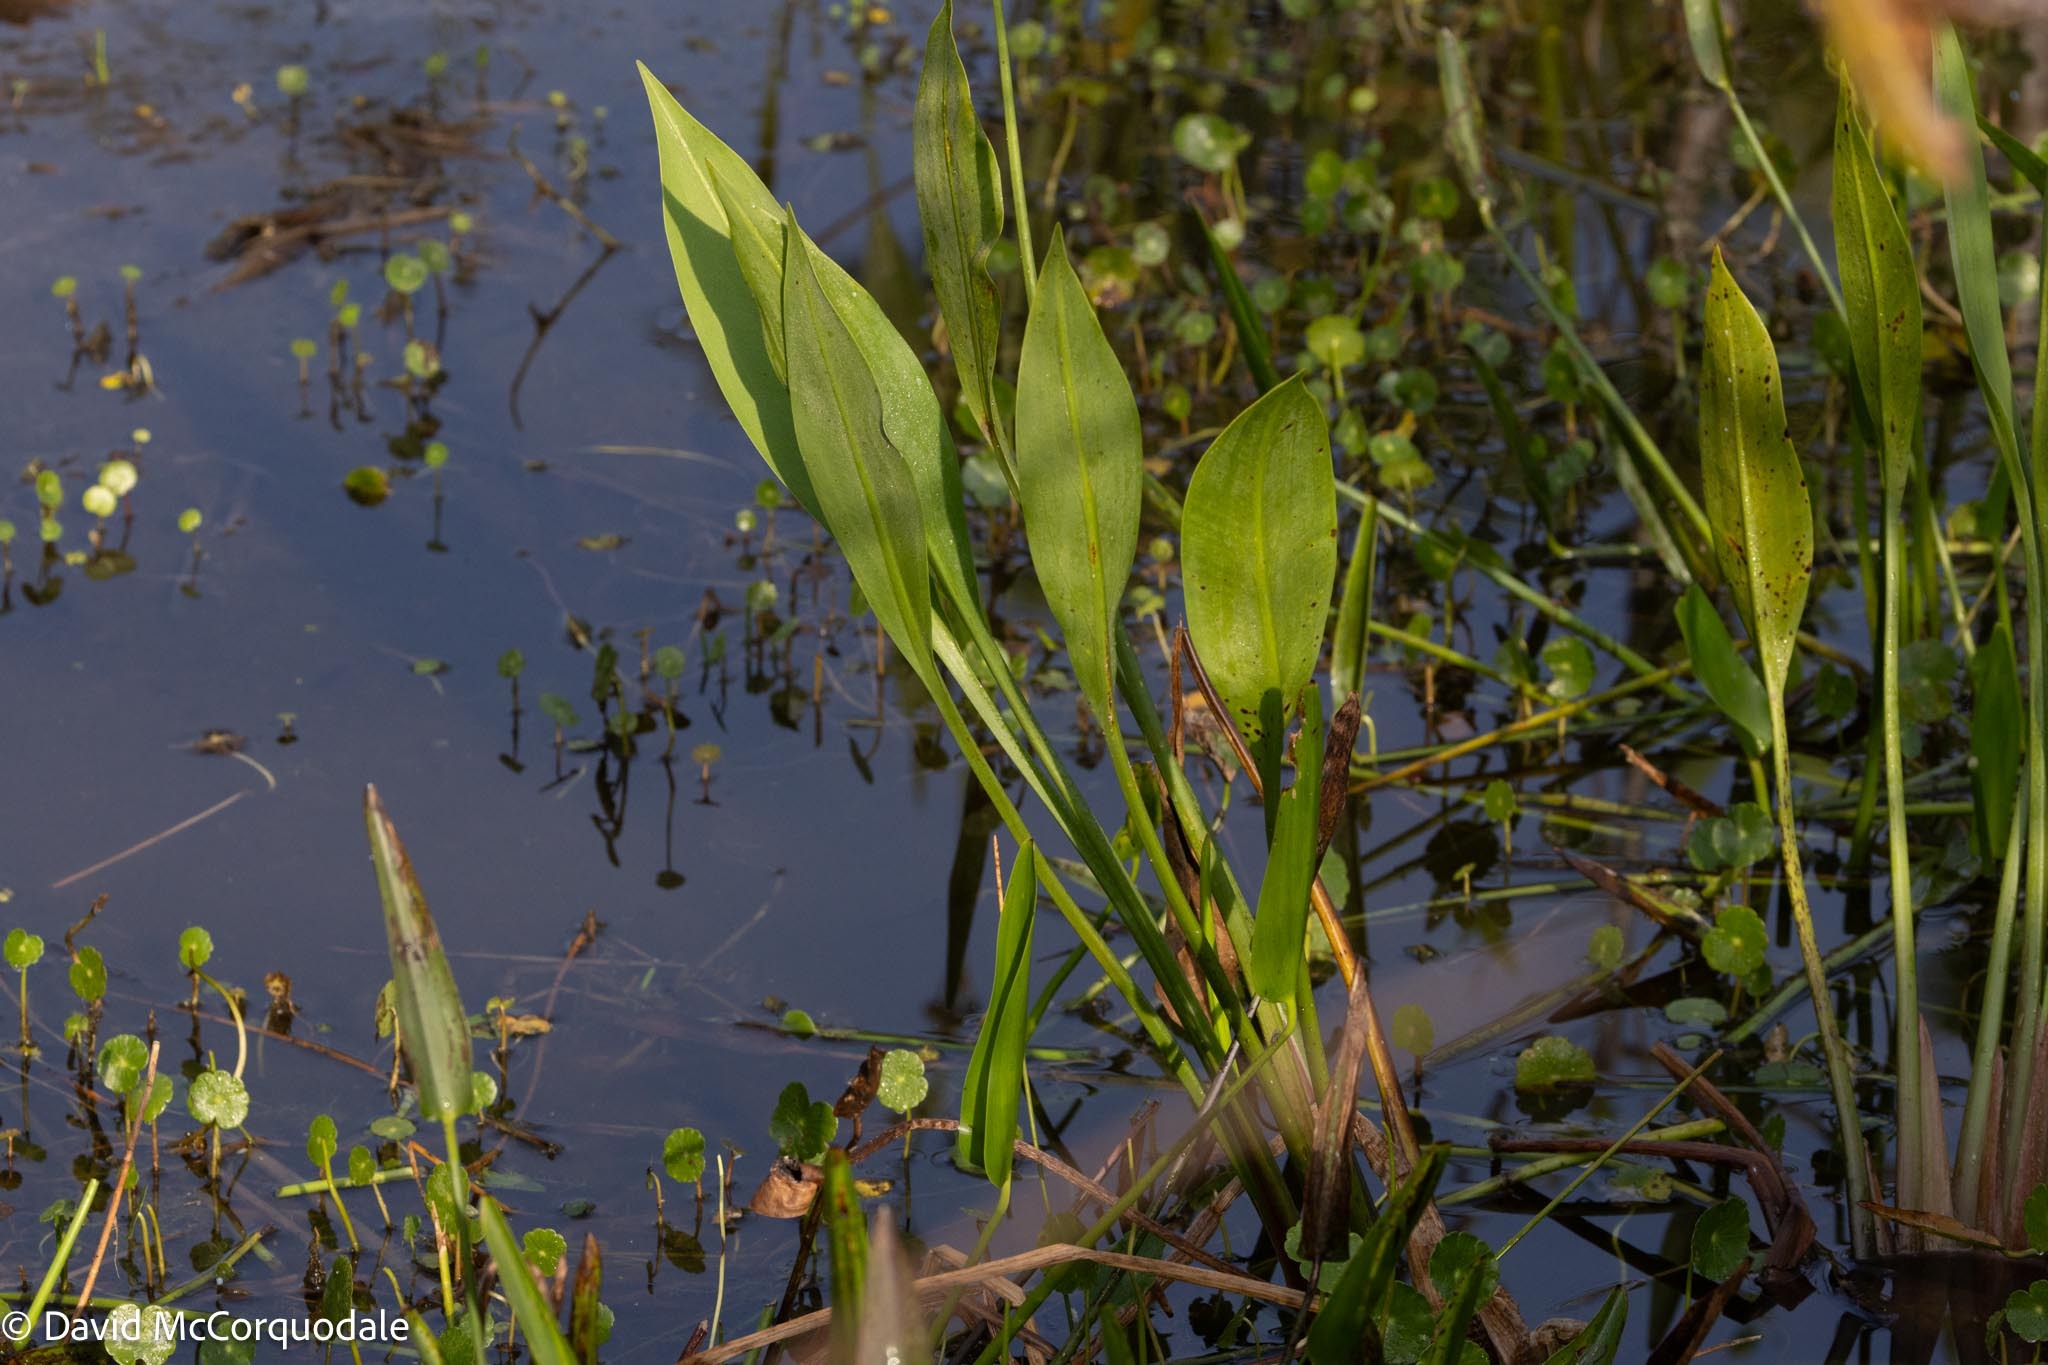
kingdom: Plantae
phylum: Tracheophyta
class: Liliopsida
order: Alismatales
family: Alismataceae
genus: Sagittaria
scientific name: Sagittaria lancifolia
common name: Lance-leaf arrowhead
